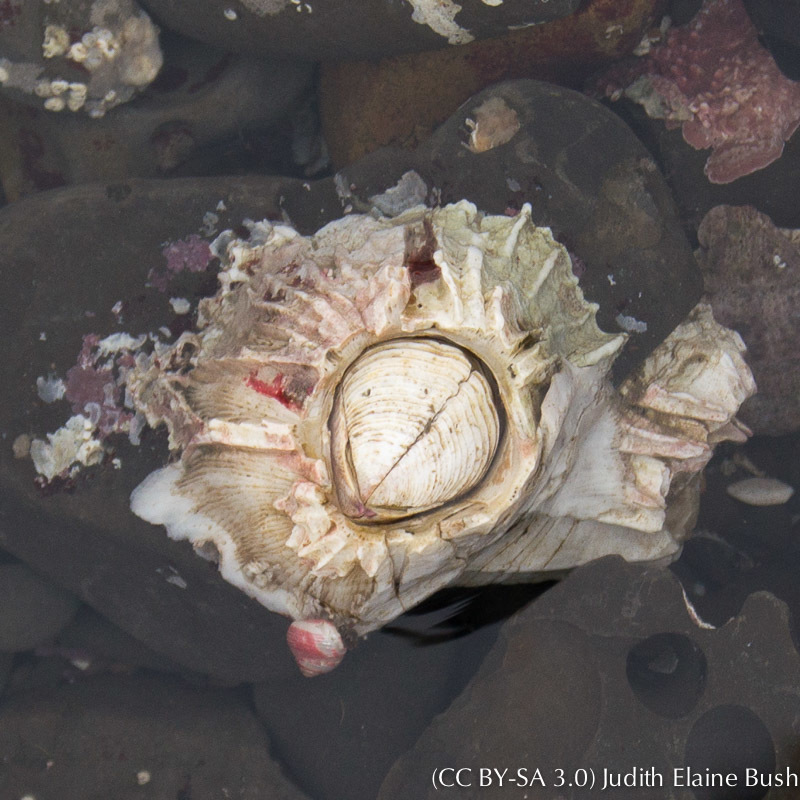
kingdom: Animalia
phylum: Arthropoda
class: Maxillopoda
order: Sessilia
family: Balanidae
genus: Balanus
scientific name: Balanus nubilus
